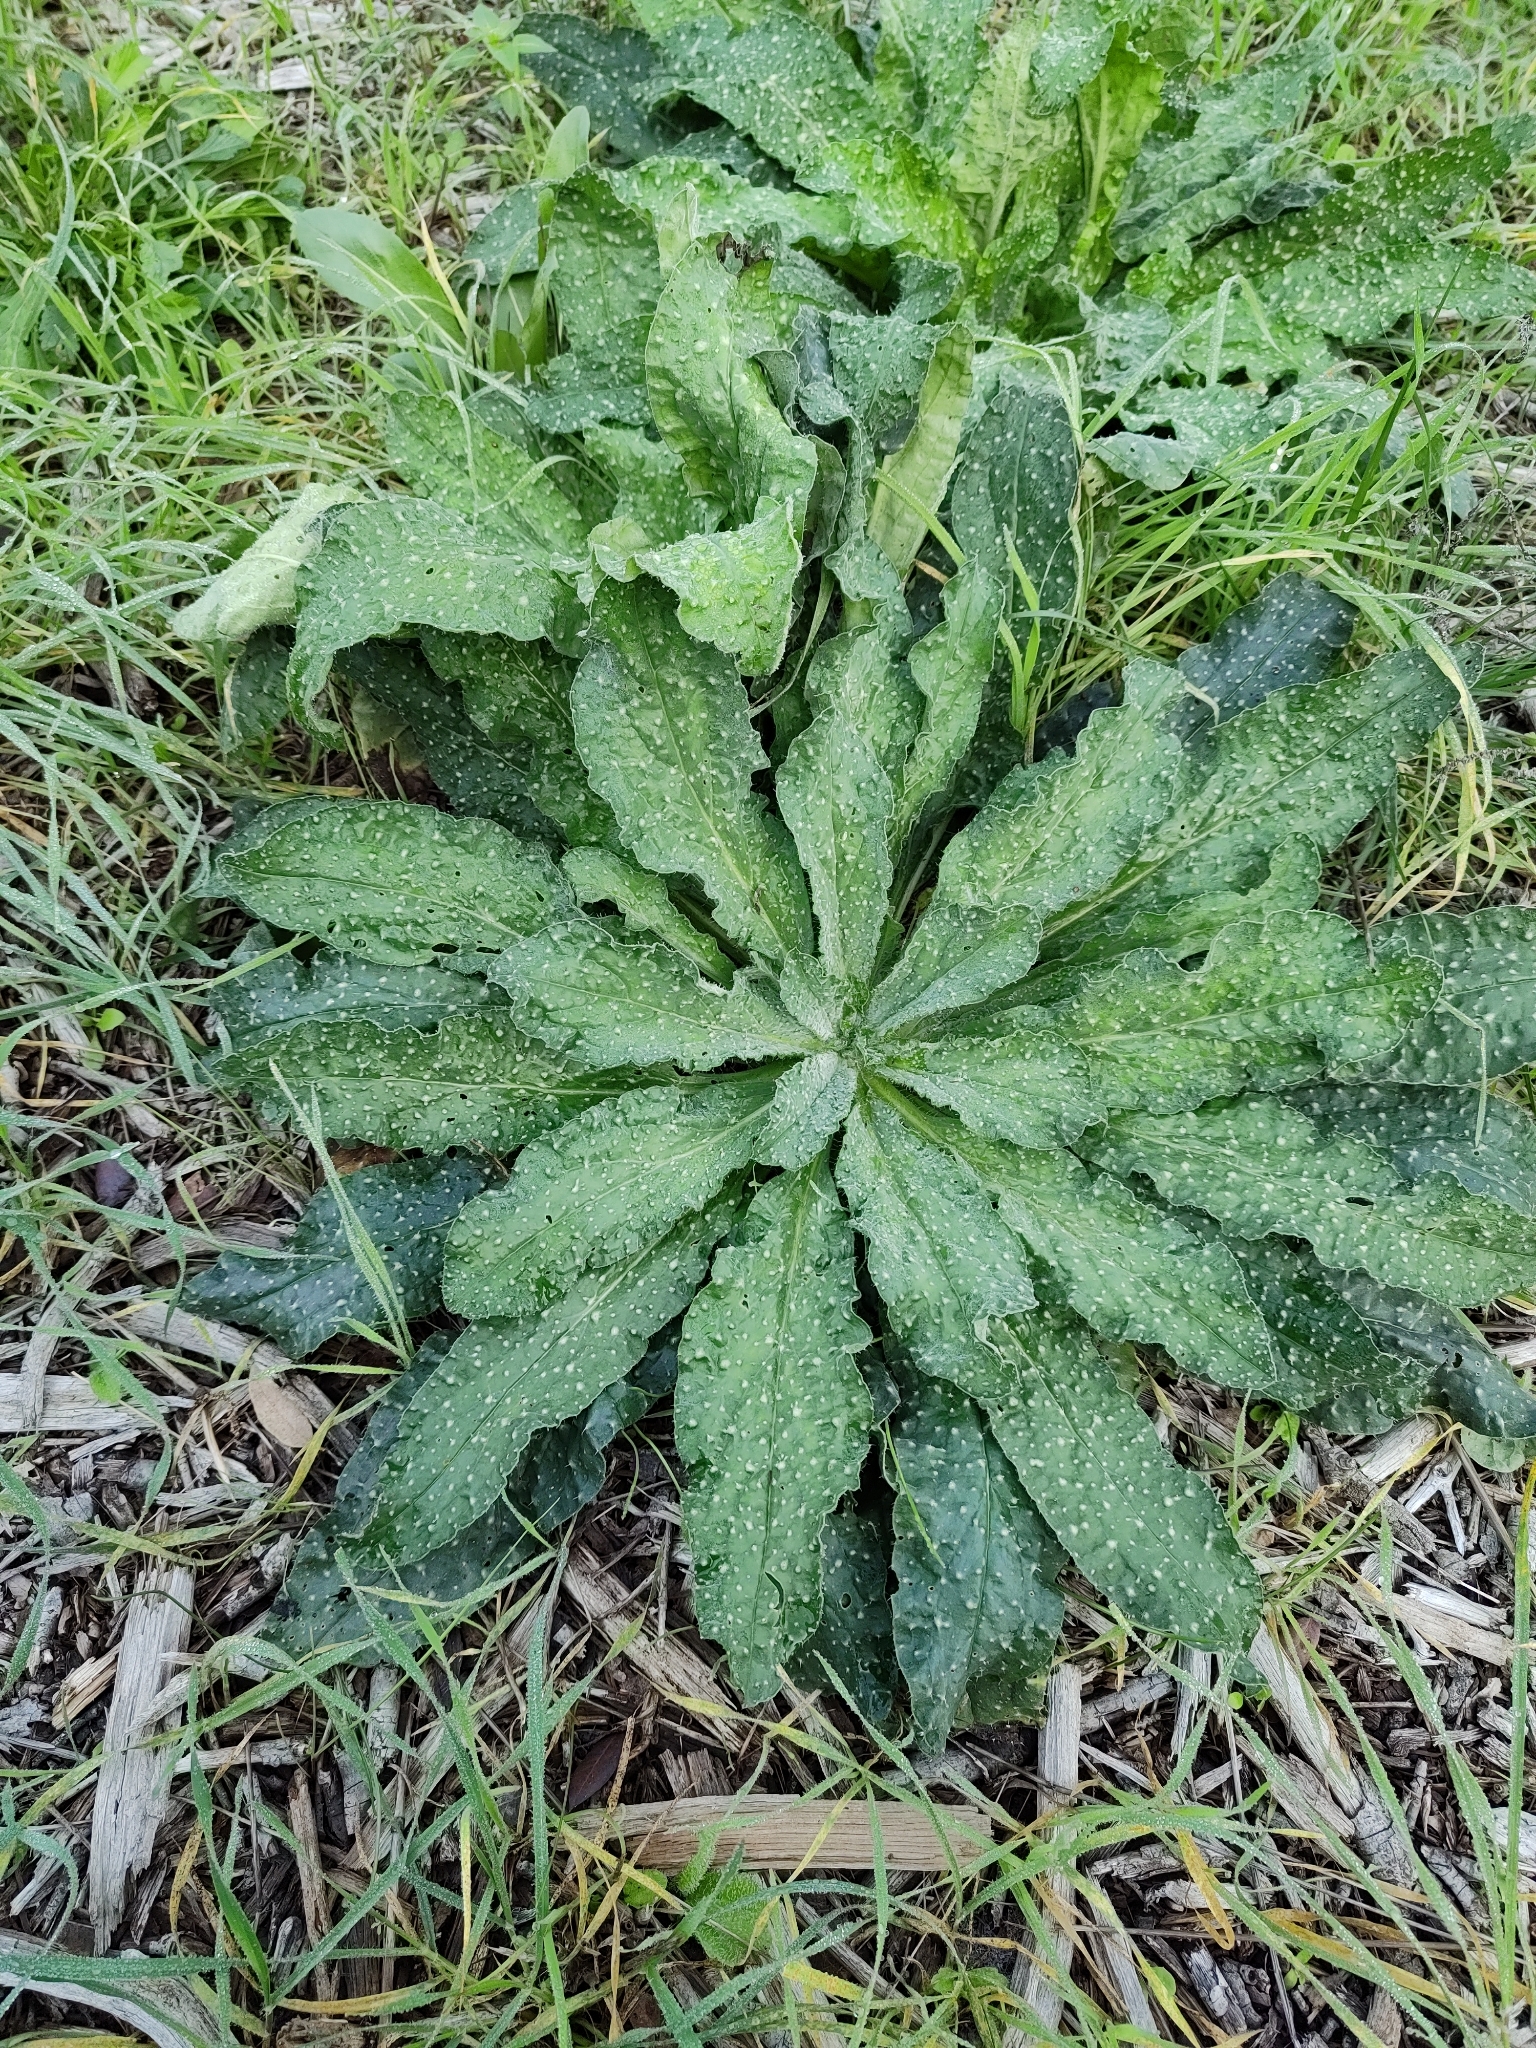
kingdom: Plantae
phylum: Tracheophyta
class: Magnoliopsida
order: Asterales
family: Asteraceae
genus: Helminthotheca
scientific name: Helminthotheca echioides
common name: Ox-tongue
